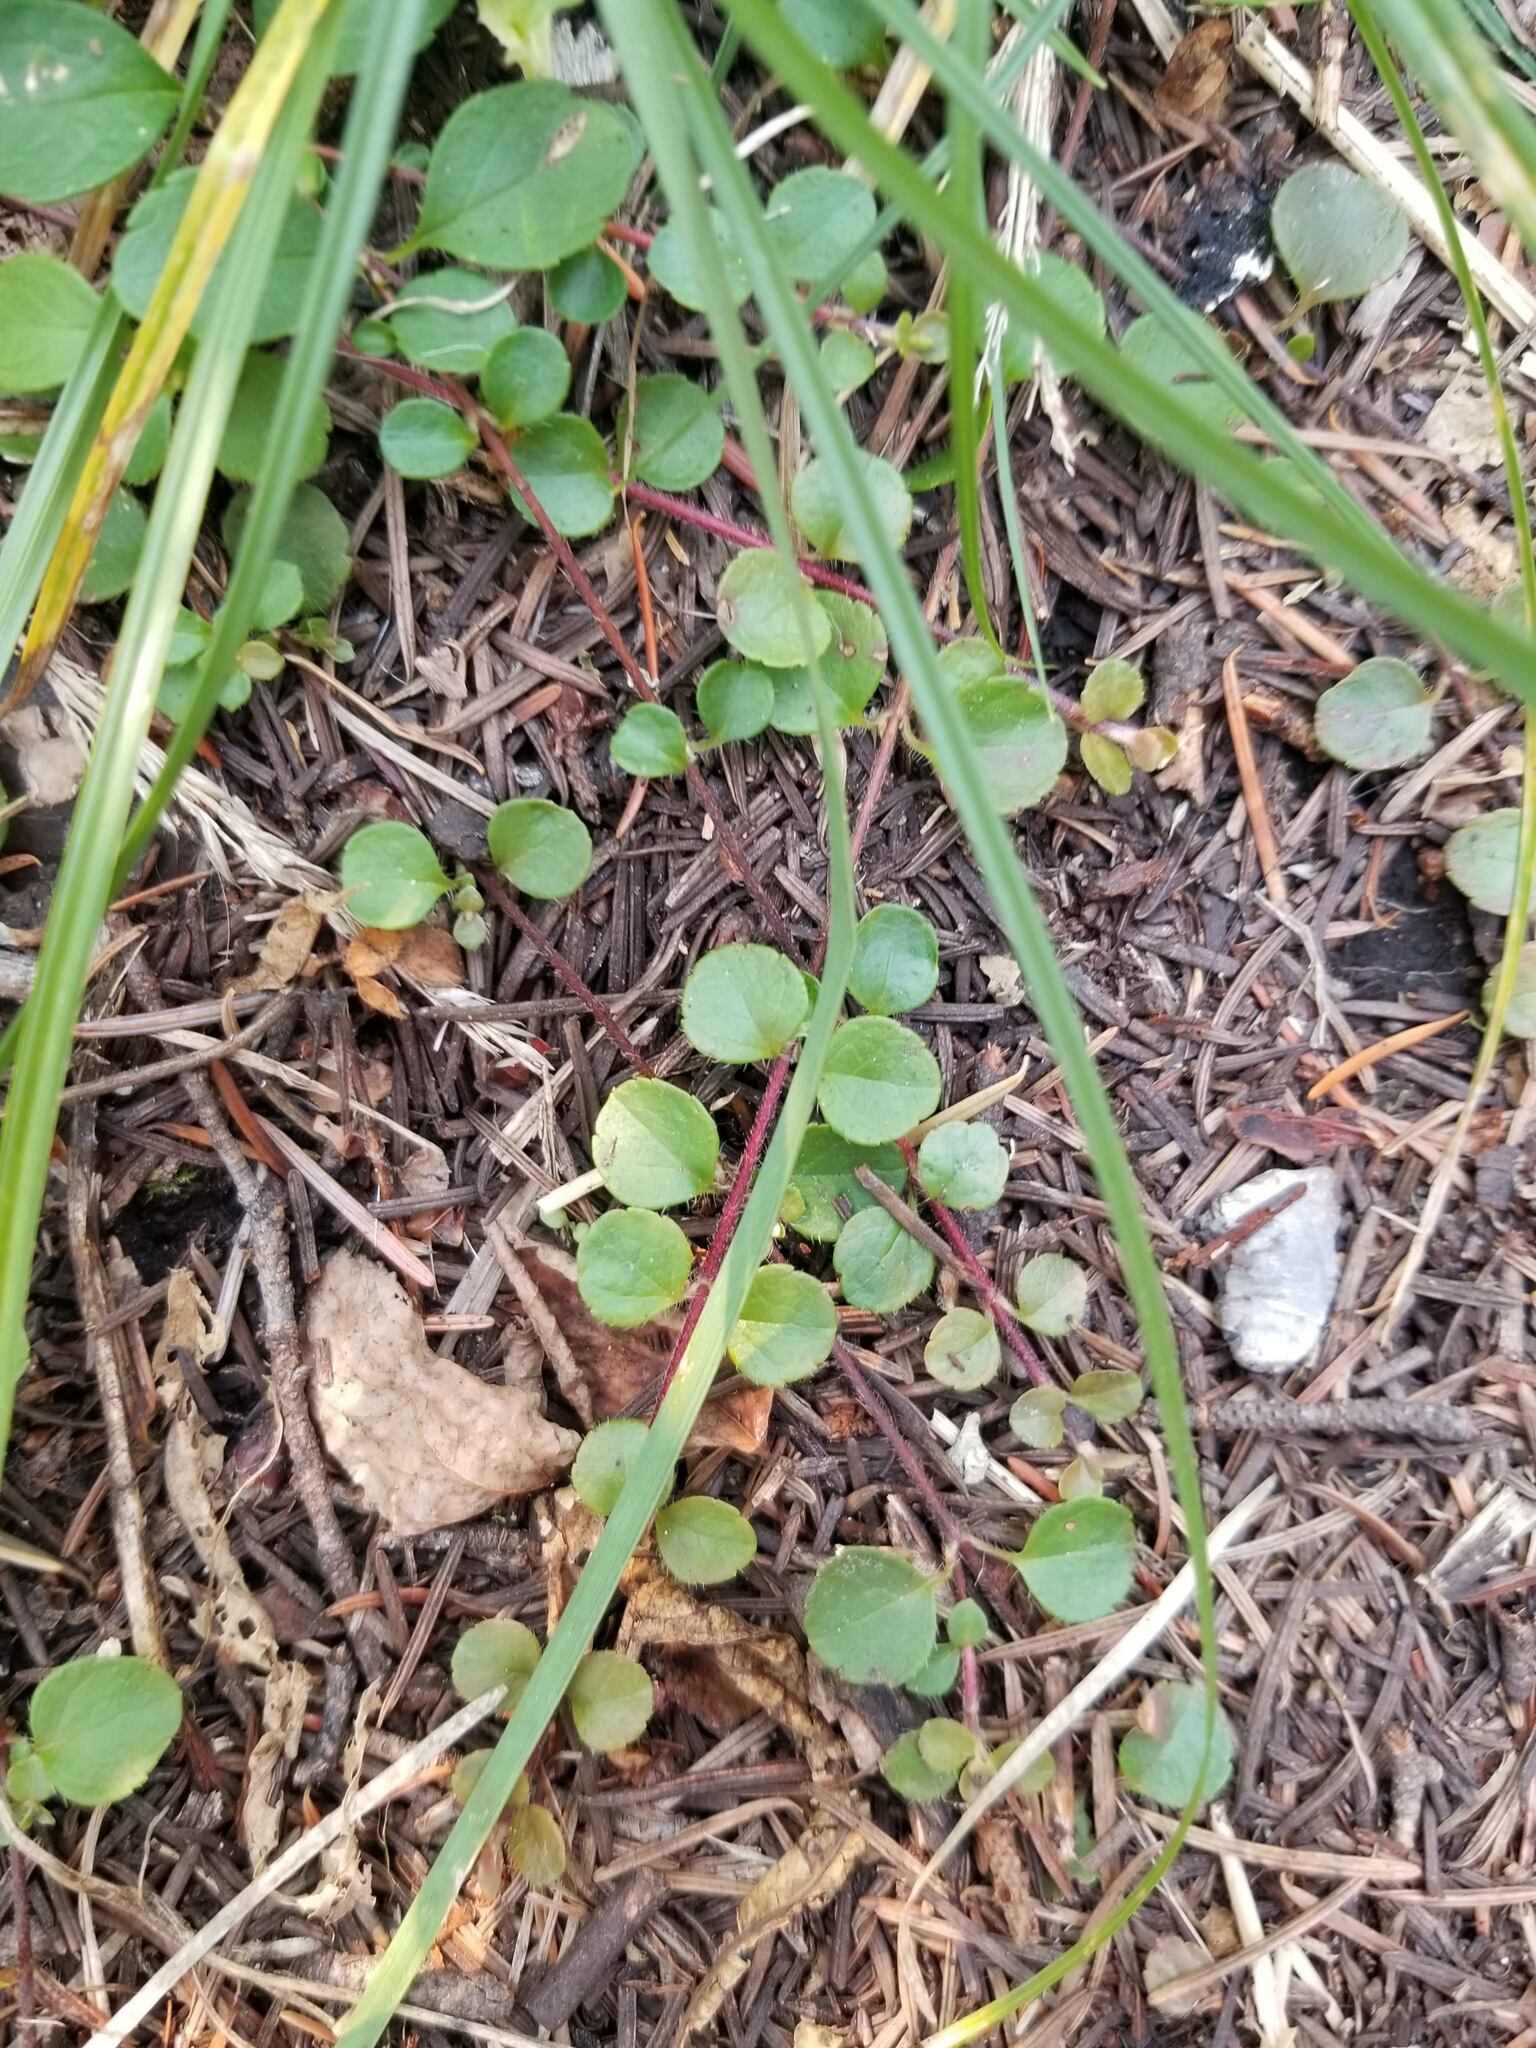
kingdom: Plantae
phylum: Tracheophyta
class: Magnoliopsida
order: Dipsacales
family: Caprifoliaceae
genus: Linnaea
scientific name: Linnaea borealis
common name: Twinflower
